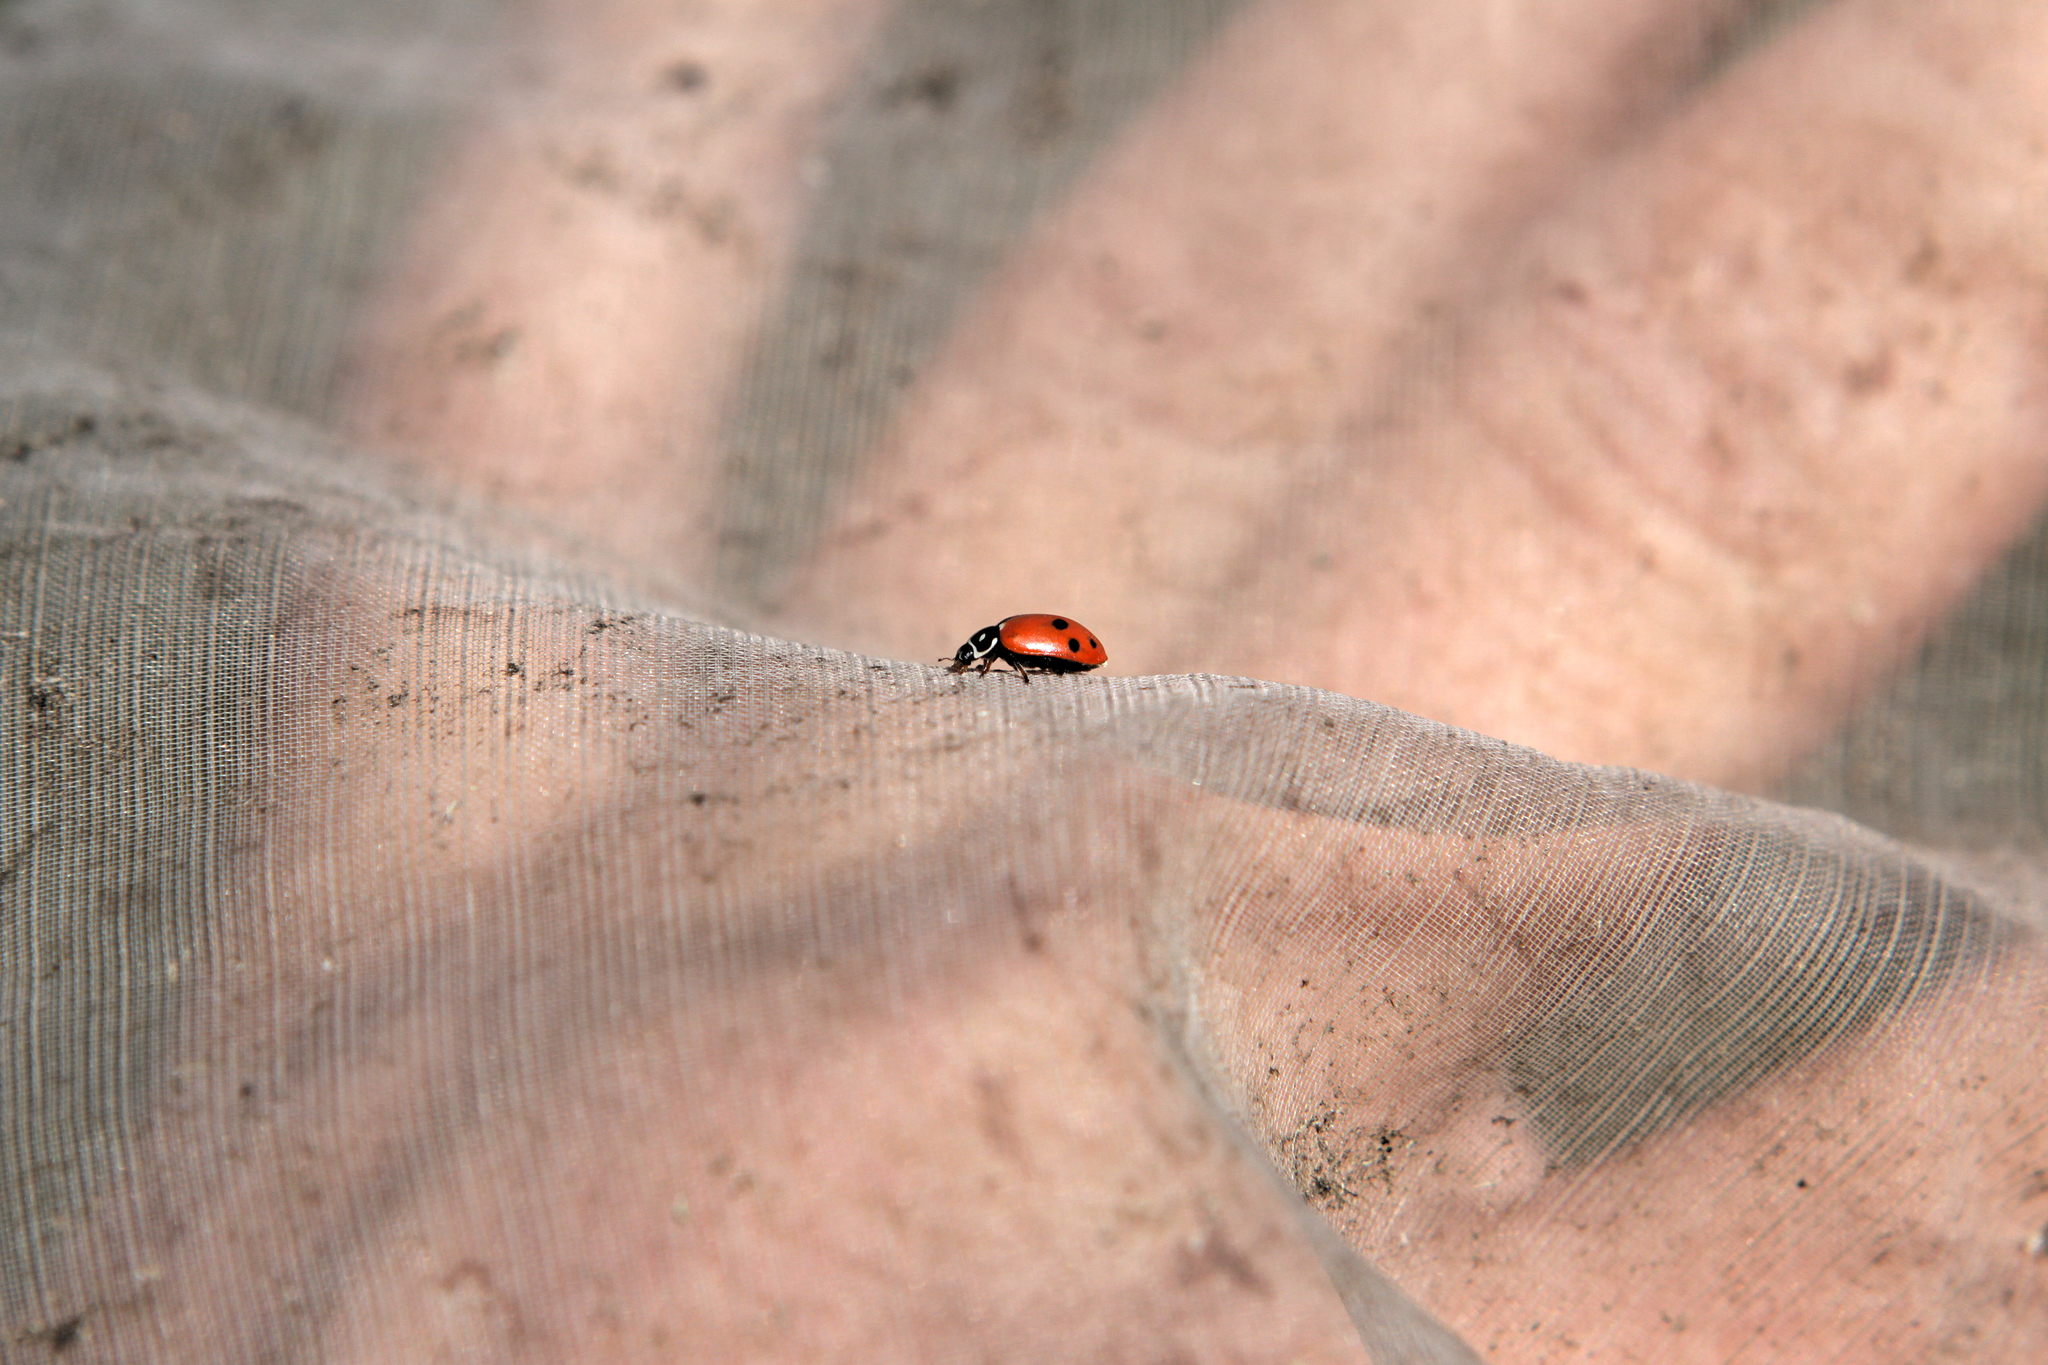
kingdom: Animalia
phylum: Arthropoda
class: Insecta
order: Coleoptera
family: Coccinellidae
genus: Hippodamia
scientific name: Hippodamia variegata
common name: Ladybird beetle
